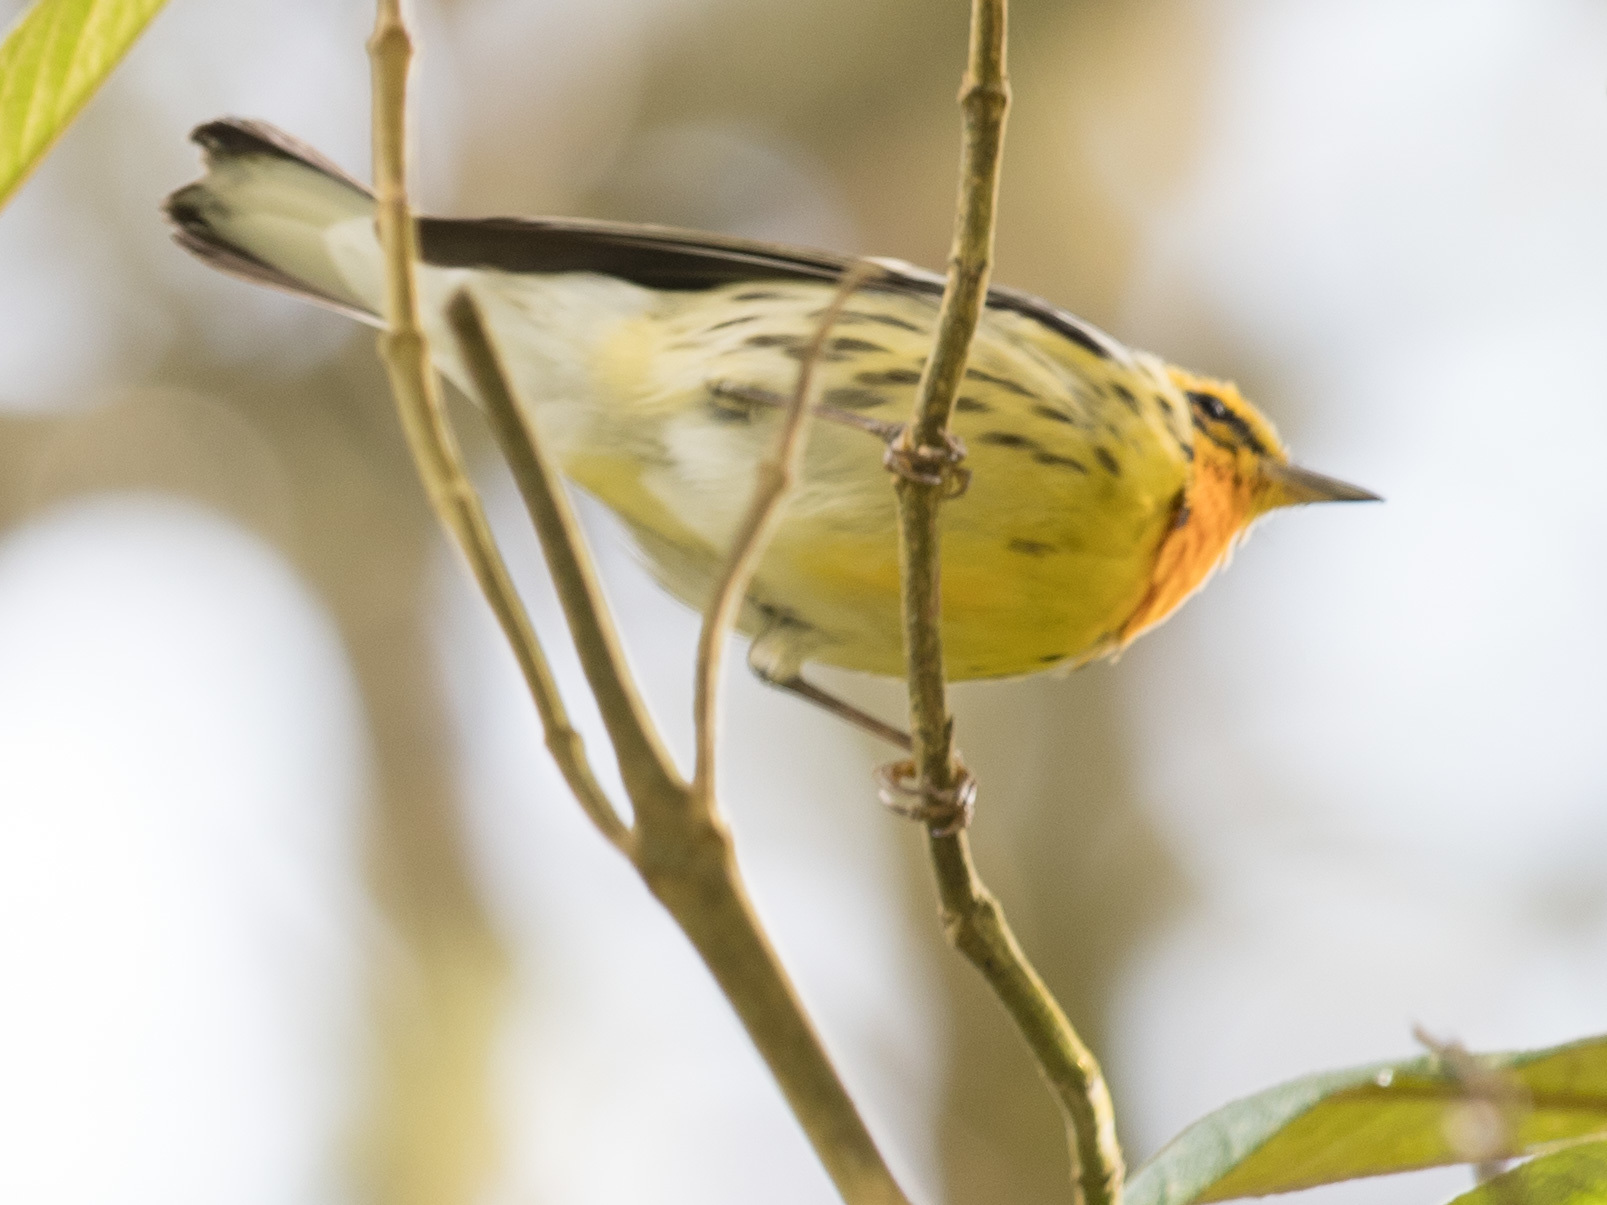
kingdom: Animalia
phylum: Chordata
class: Aves
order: Passeriformes
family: Parulidae
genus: Setophaga
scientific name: Setophaga fusca
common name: Blackburnian warbler
